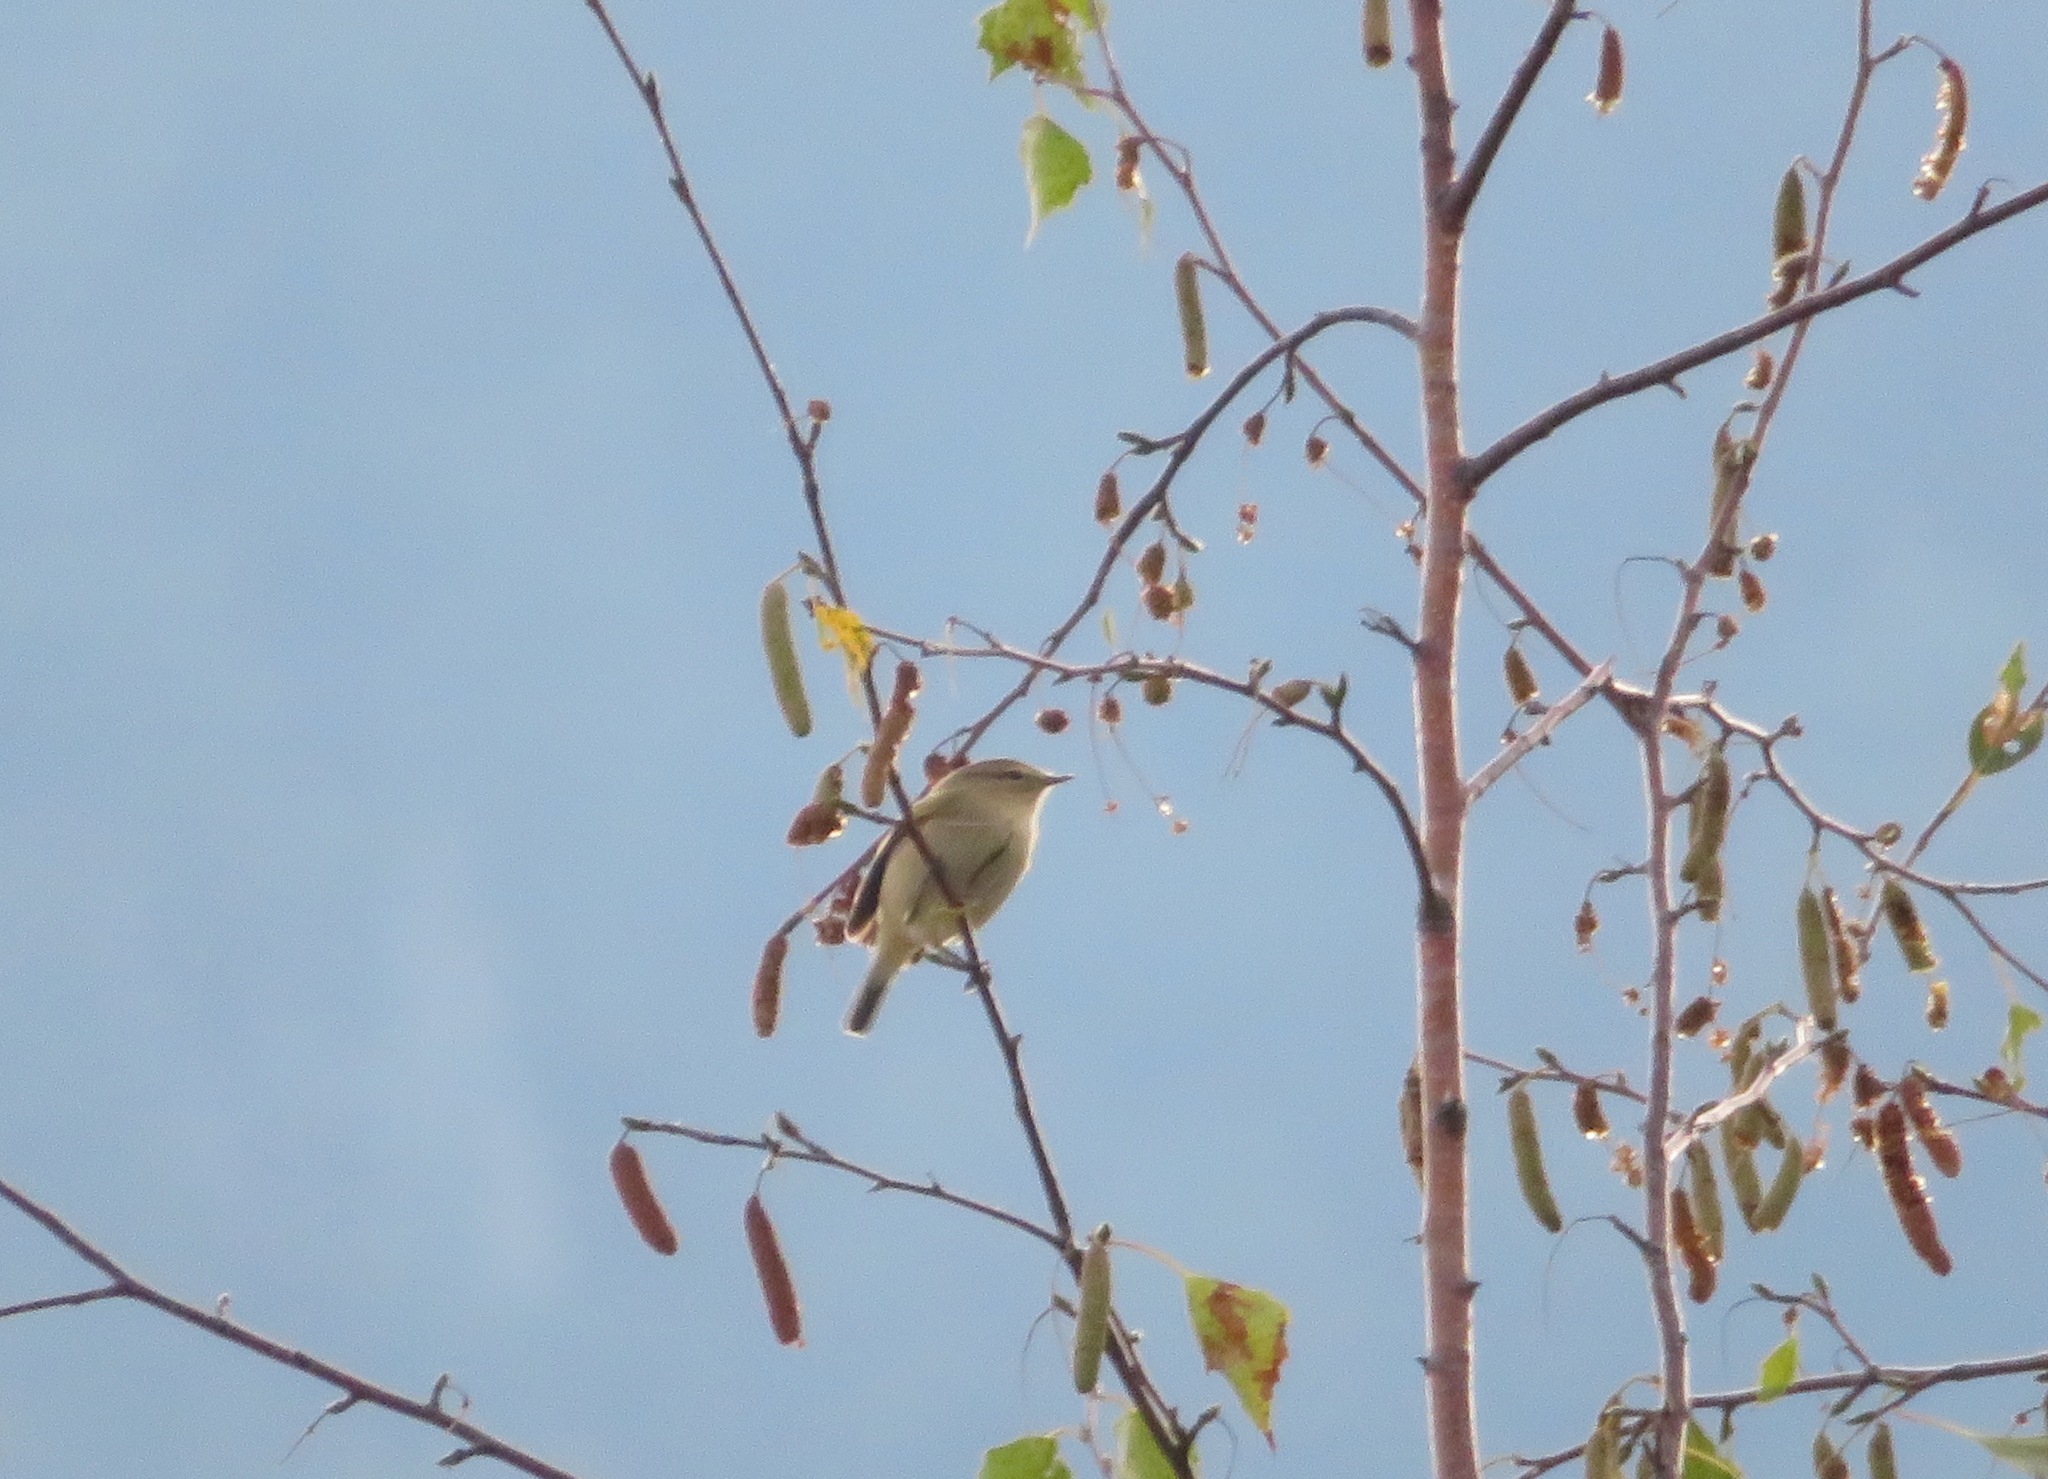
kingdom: Animalia
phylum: Chordata
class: Aves
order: Passeriformes
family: Phylloscopidae
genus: Phylloscopus
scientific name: Phylloscopus collybita
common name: Common chiffchaff
